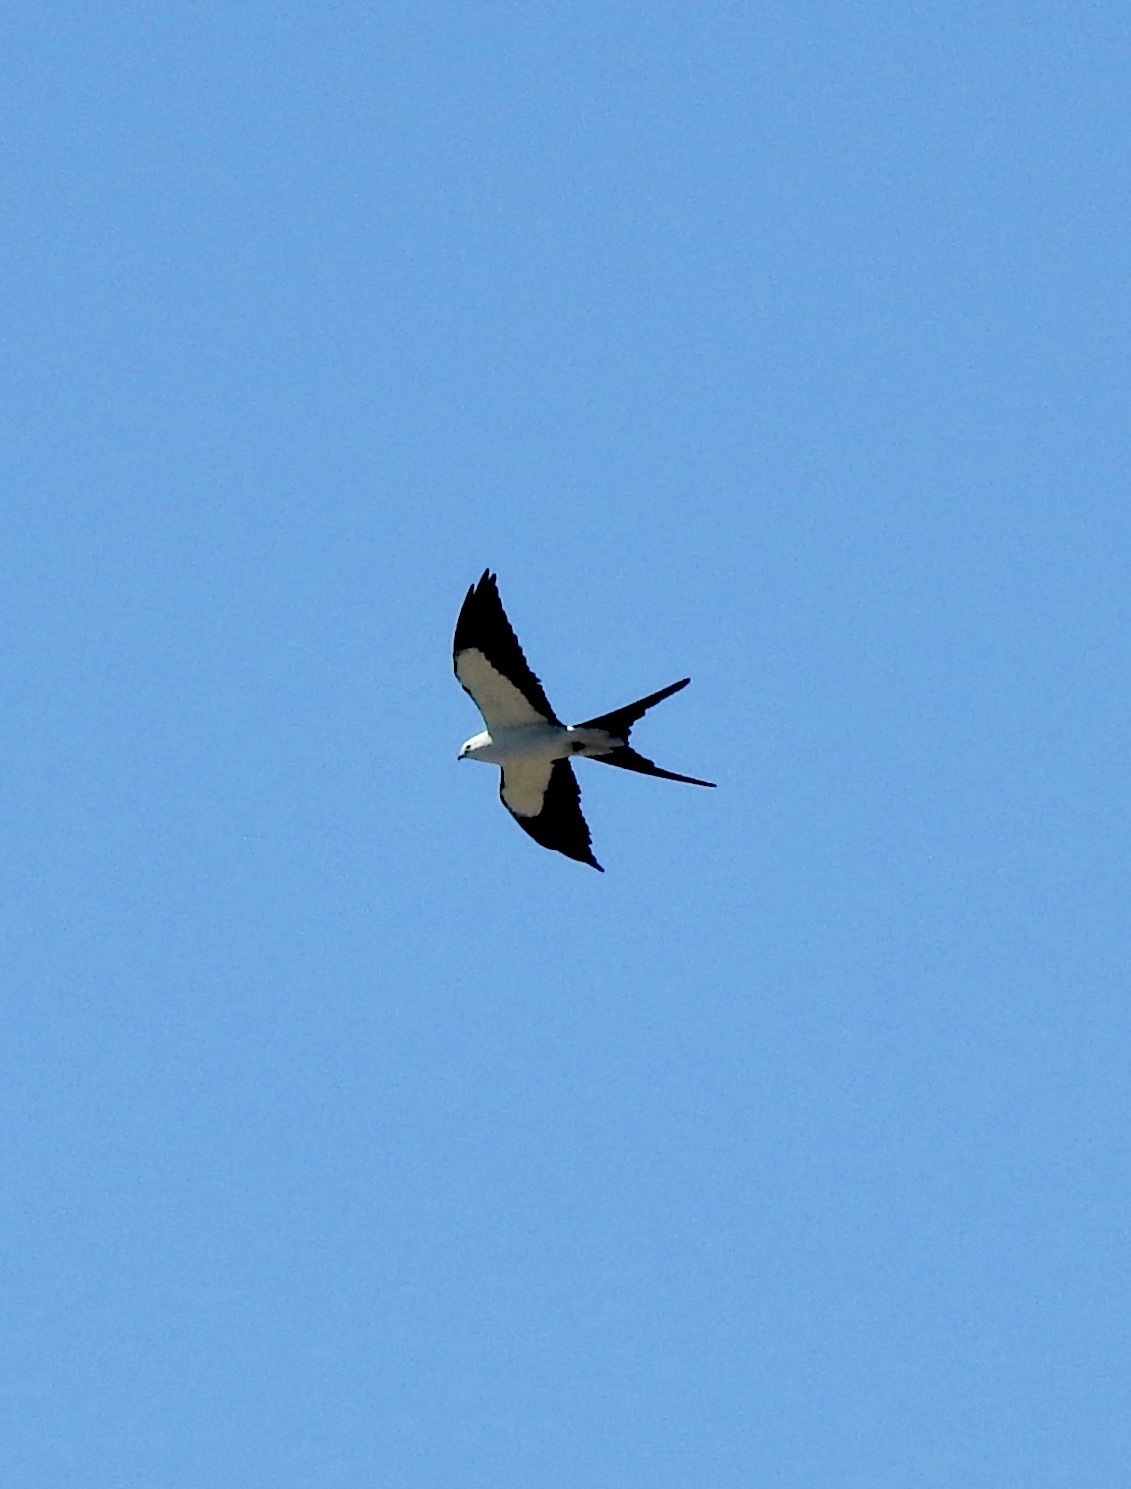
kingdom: Animalia
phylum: Chordata
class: Aves
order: Accipitriformes
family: Accipitridae
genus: Elanoides
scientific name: Elanoides forficatus
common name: Swallow-tailed kite
